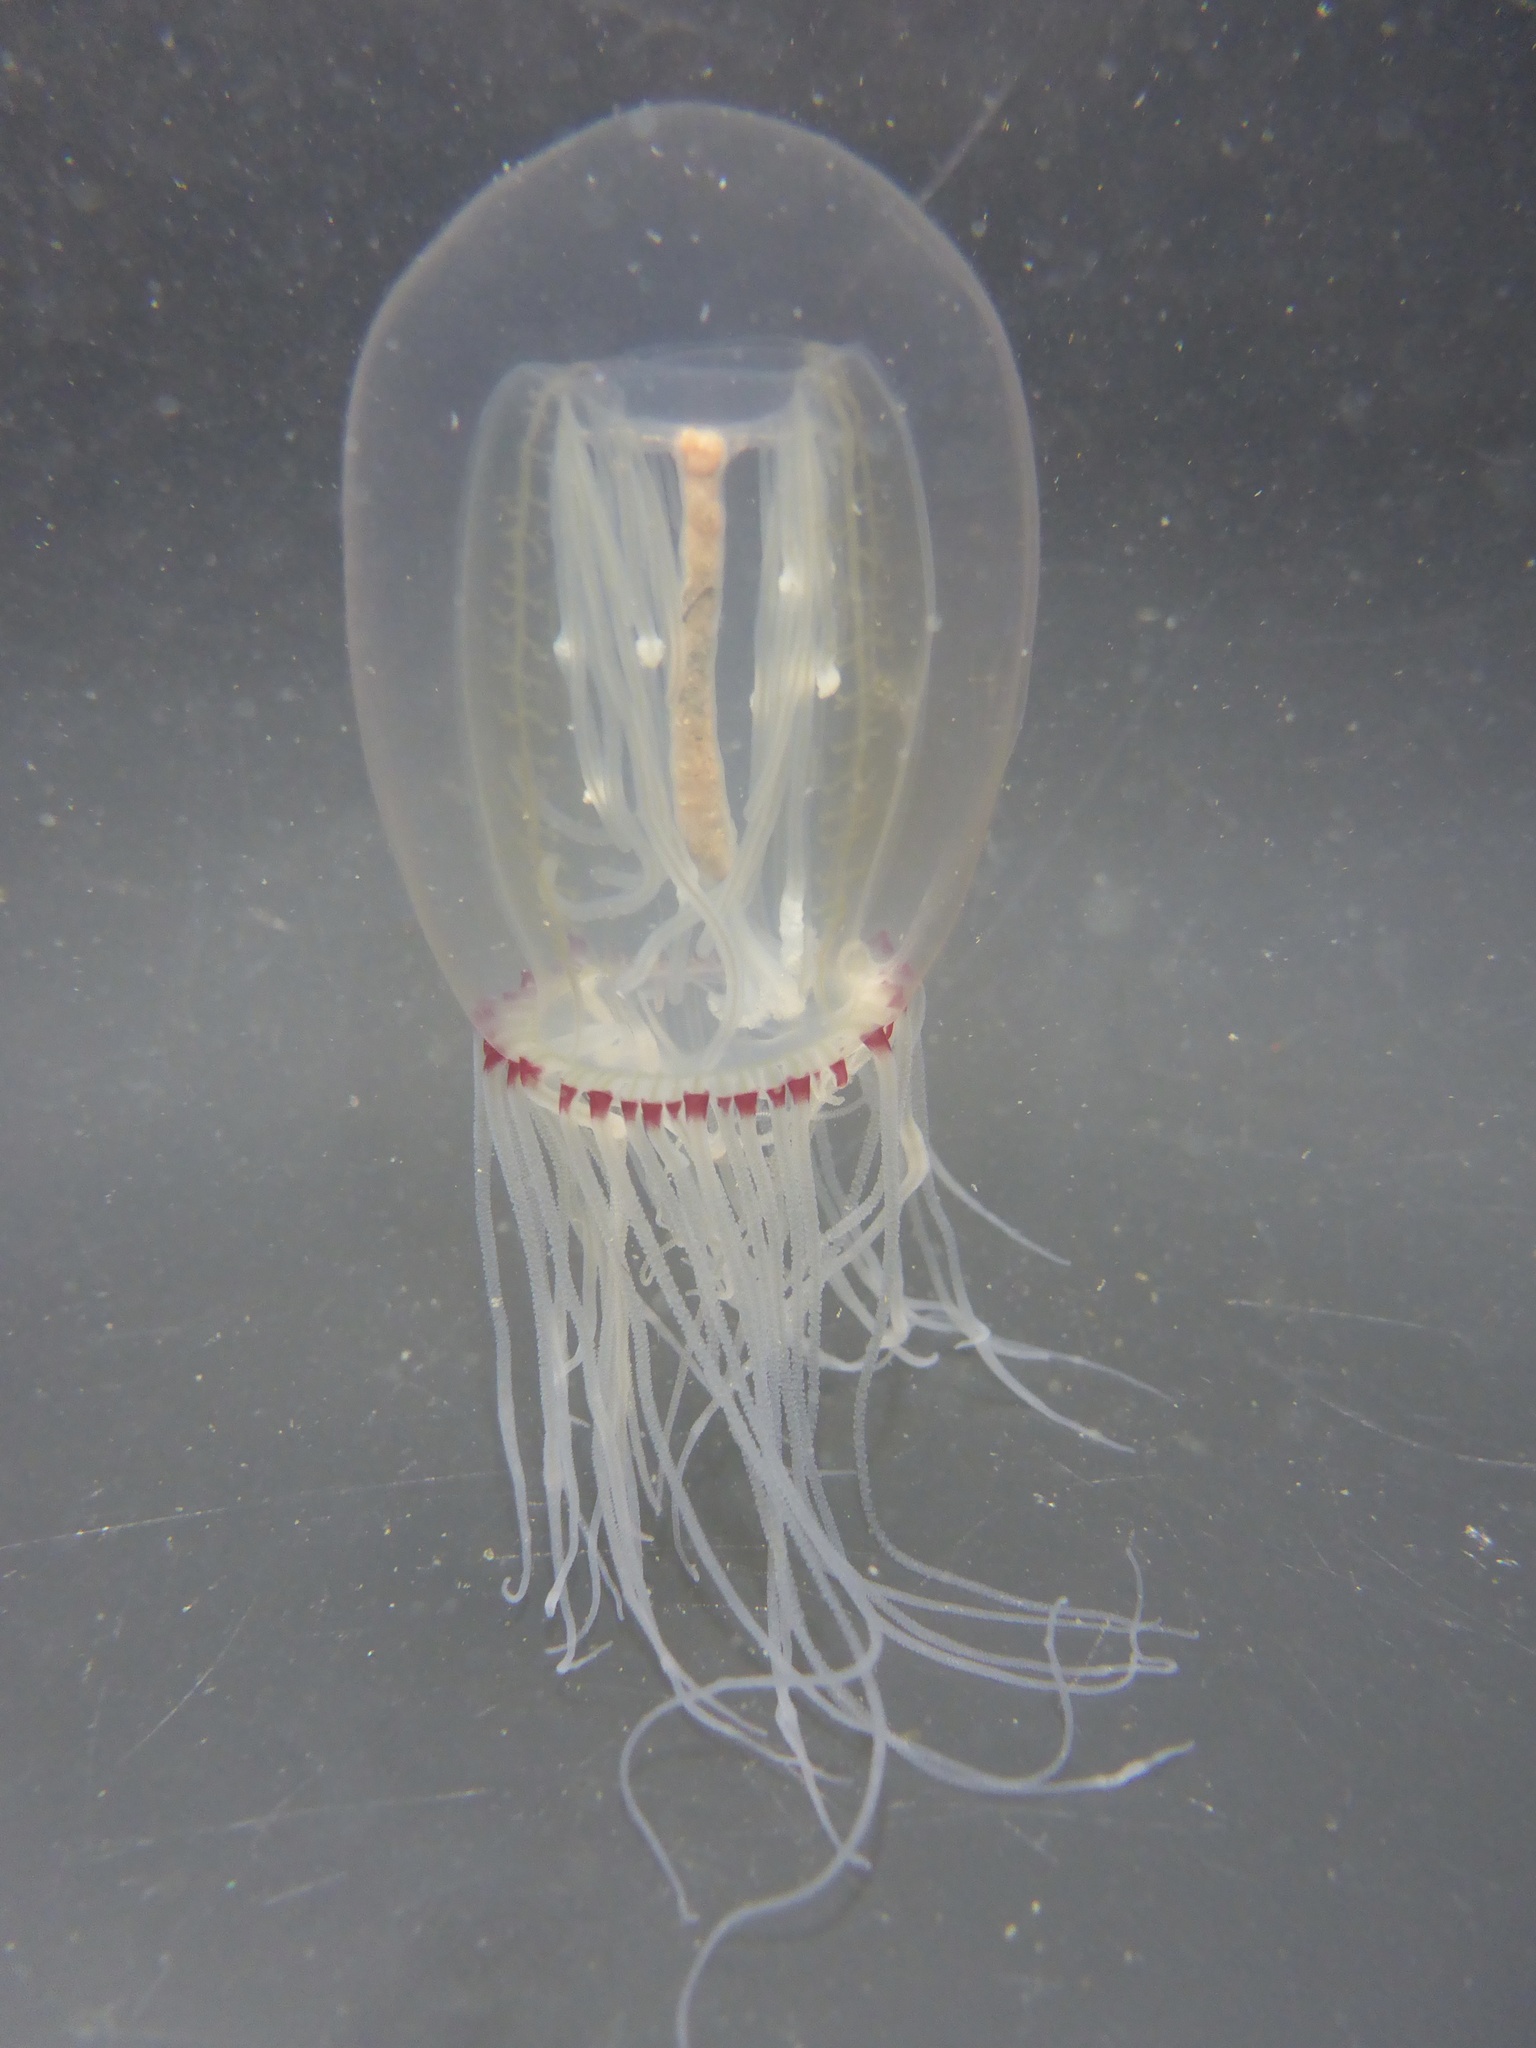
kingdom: Animalia
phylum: Cnidaria
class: Hydrozoa
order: Anthoathecata
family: Corynidae
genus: Polyorchis
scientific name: Polyorchis penicillatus
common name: Penicillate jellyfish
